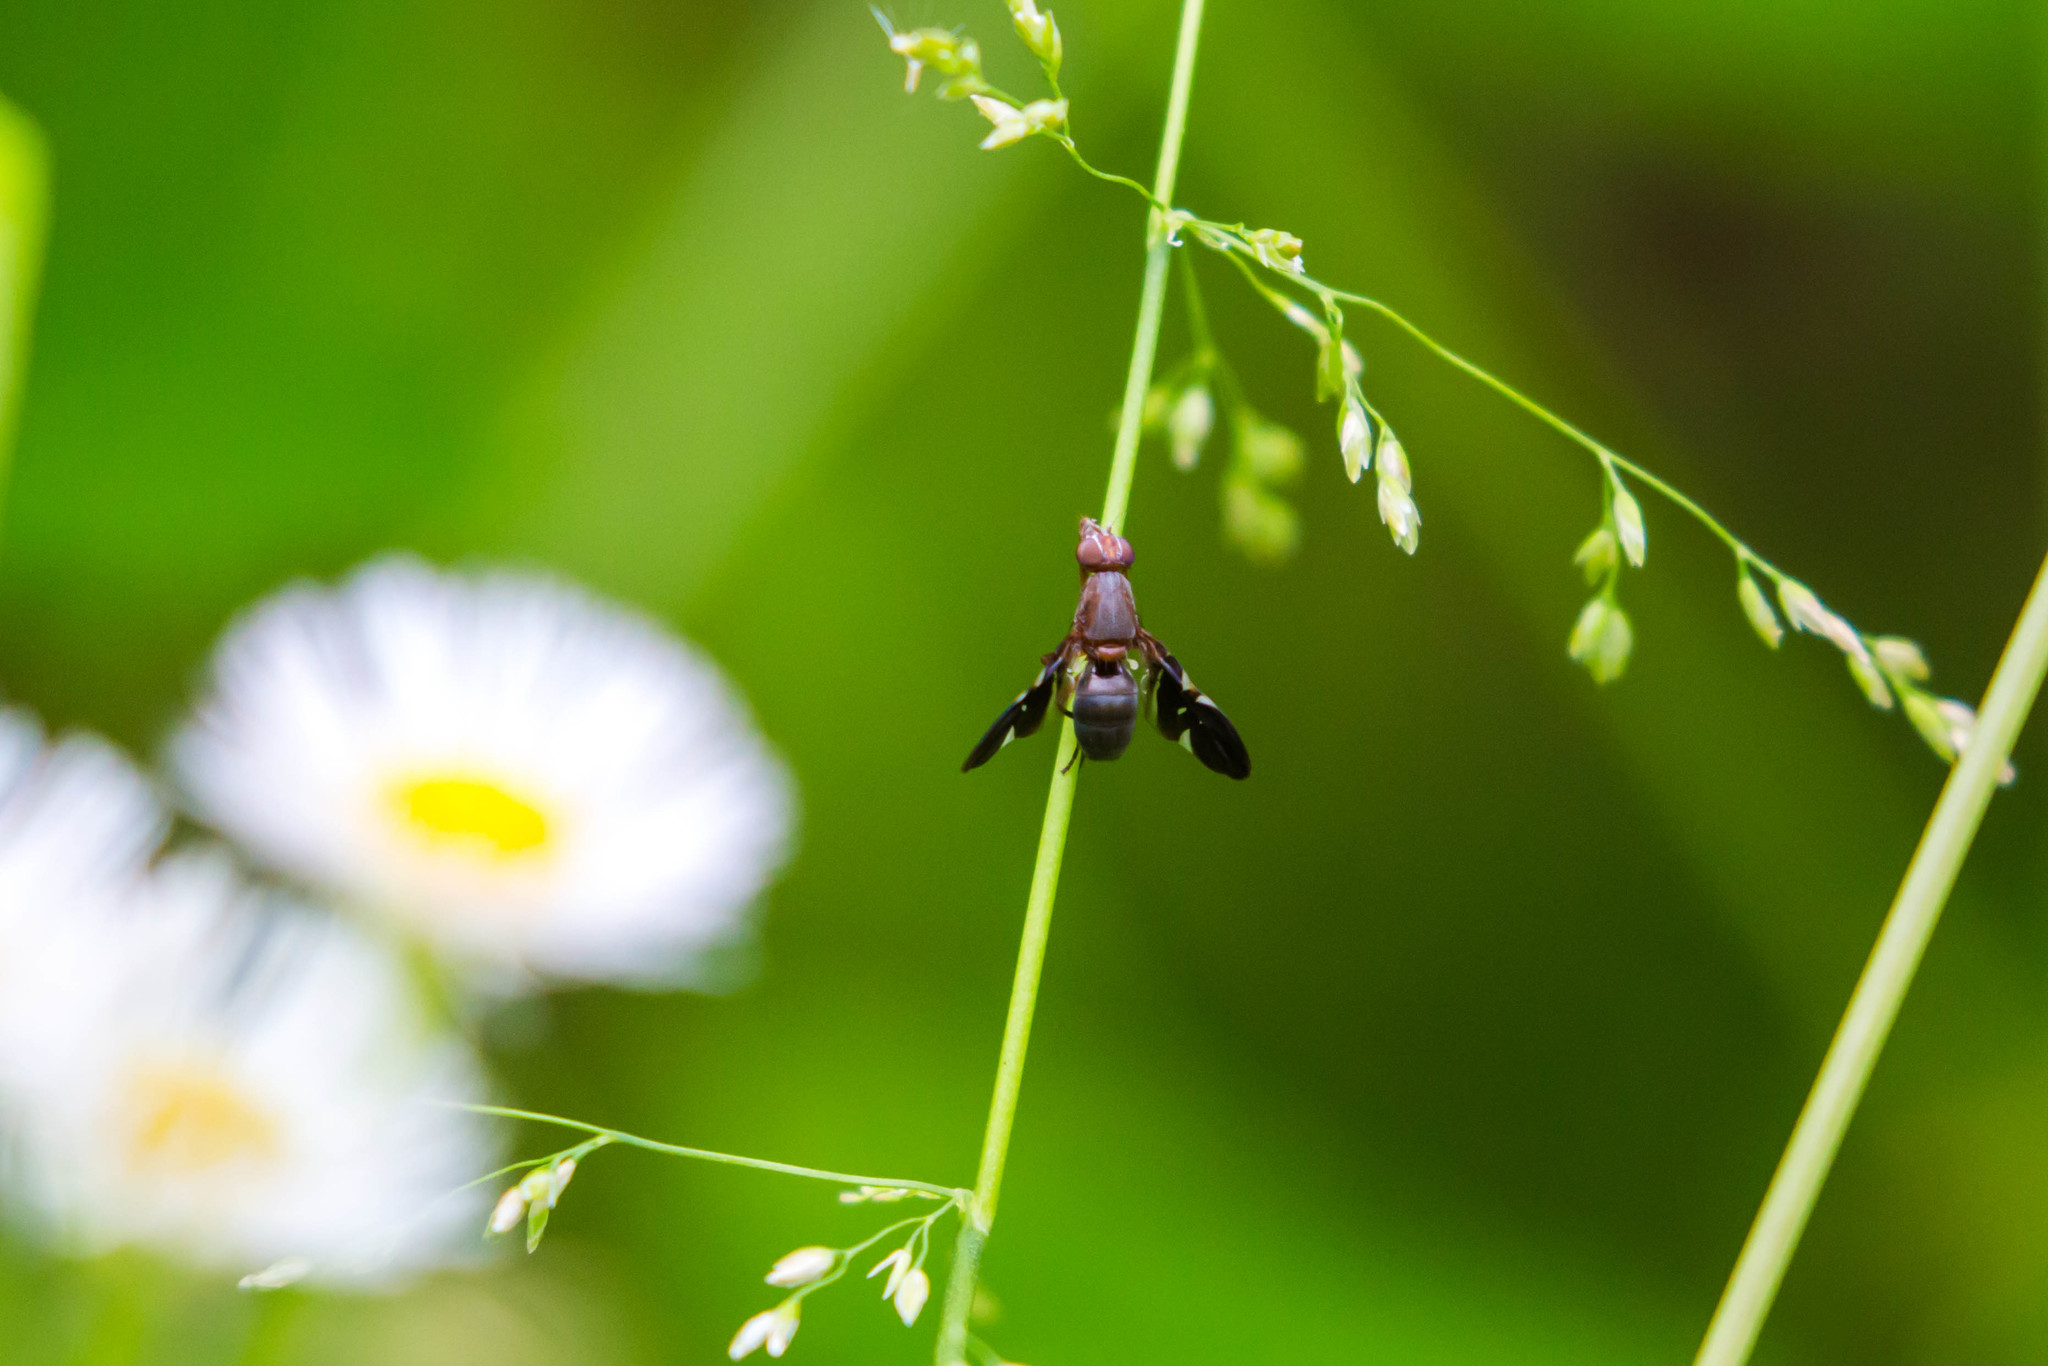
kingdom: Animalia
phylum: Arthropoda
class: Insecta
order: Diptera
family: Ulidiidae
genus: Delphinia
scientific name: Delphinia picta
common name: Common picture-winged fly
